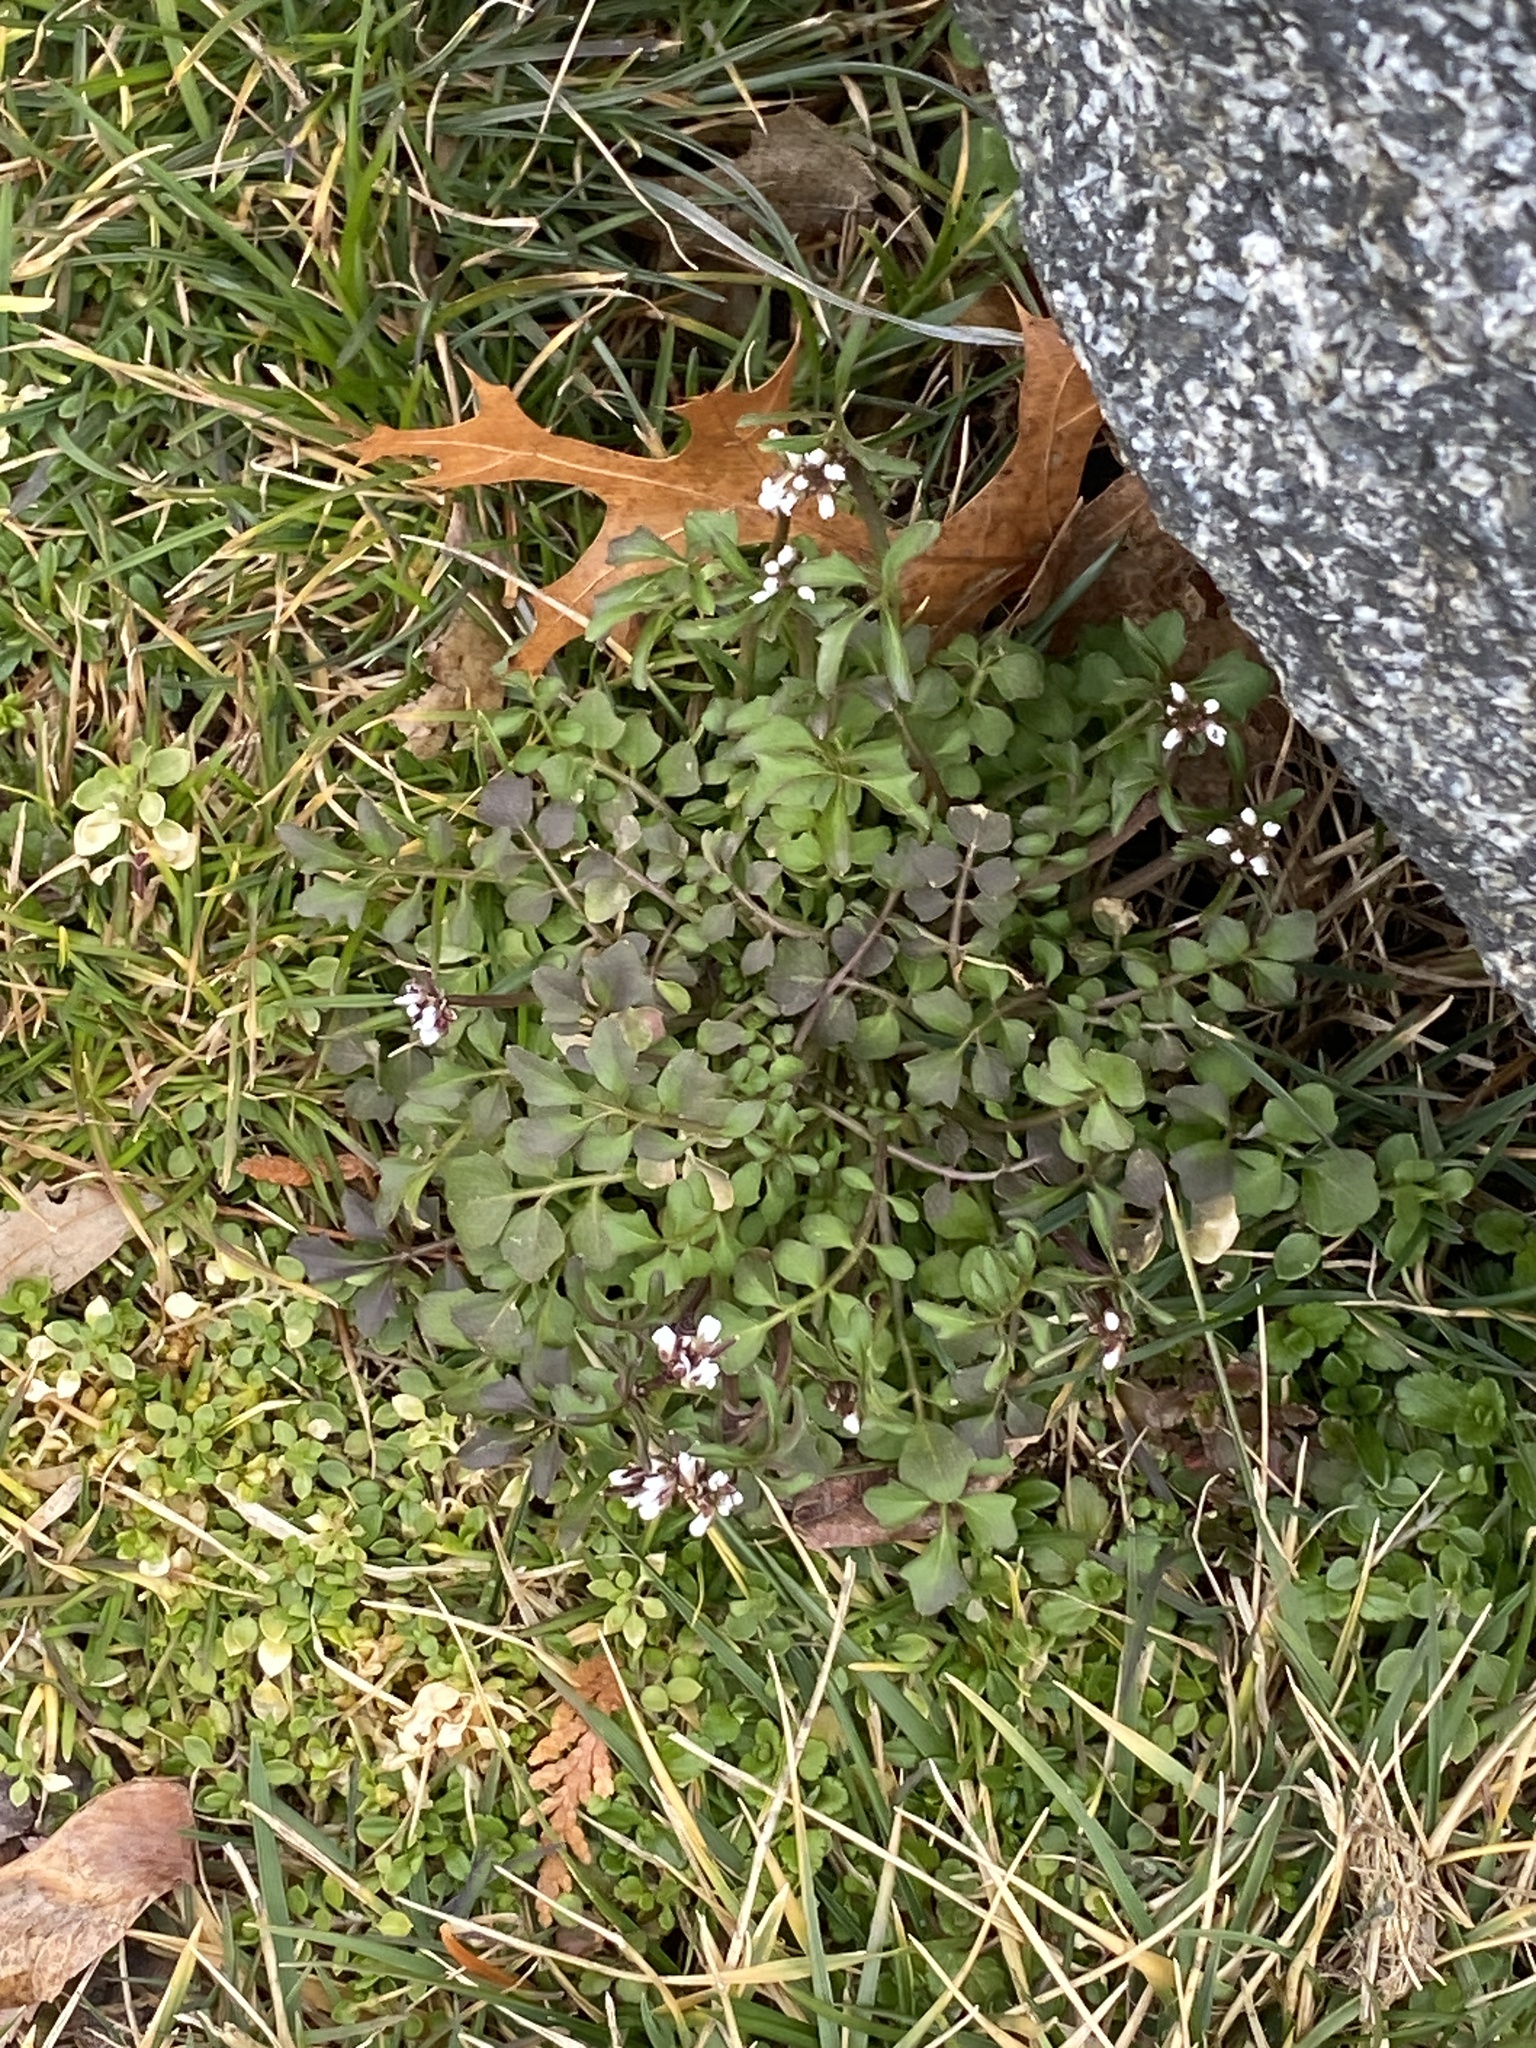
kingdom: Plantae
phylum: Tracheophyta
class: Magnoliopsida
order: Brassicales
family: Brassicaceae
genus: Cardamine
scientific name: Cardamine hirsuta
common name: Hairy bittercress
